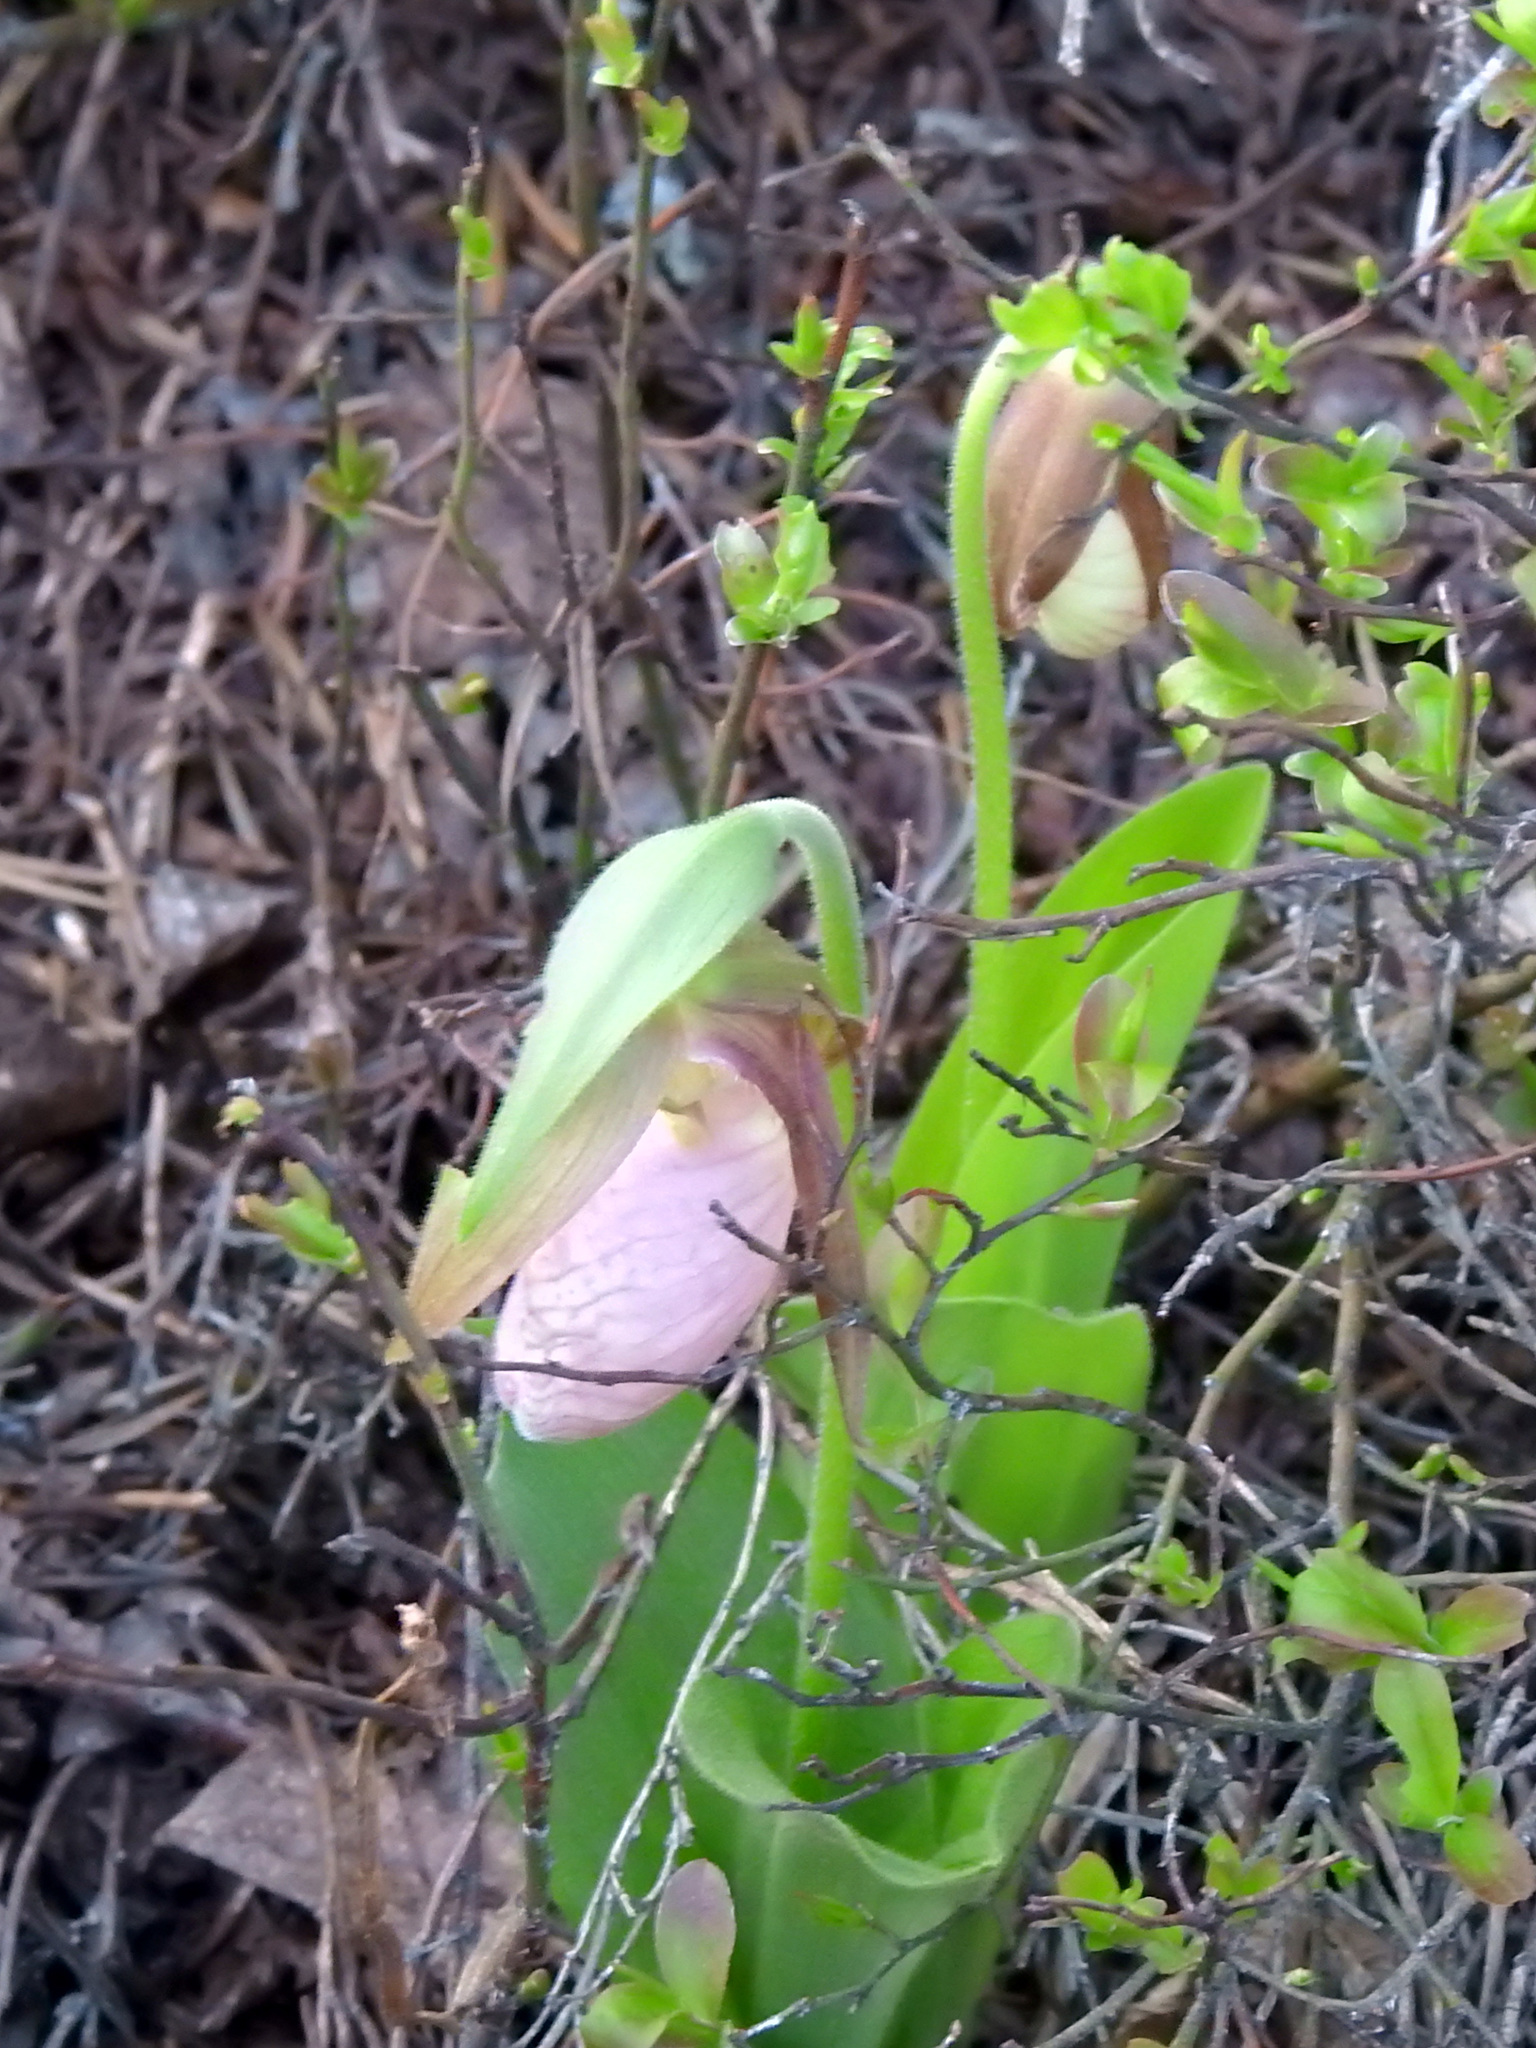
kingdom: Plantae
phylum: Tracheophyta
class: Liliopsida
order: Asparagales
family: Orchidaceae
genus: Cypripedium
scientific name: Cypripedium acaule
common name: Pink lady's-slipper
